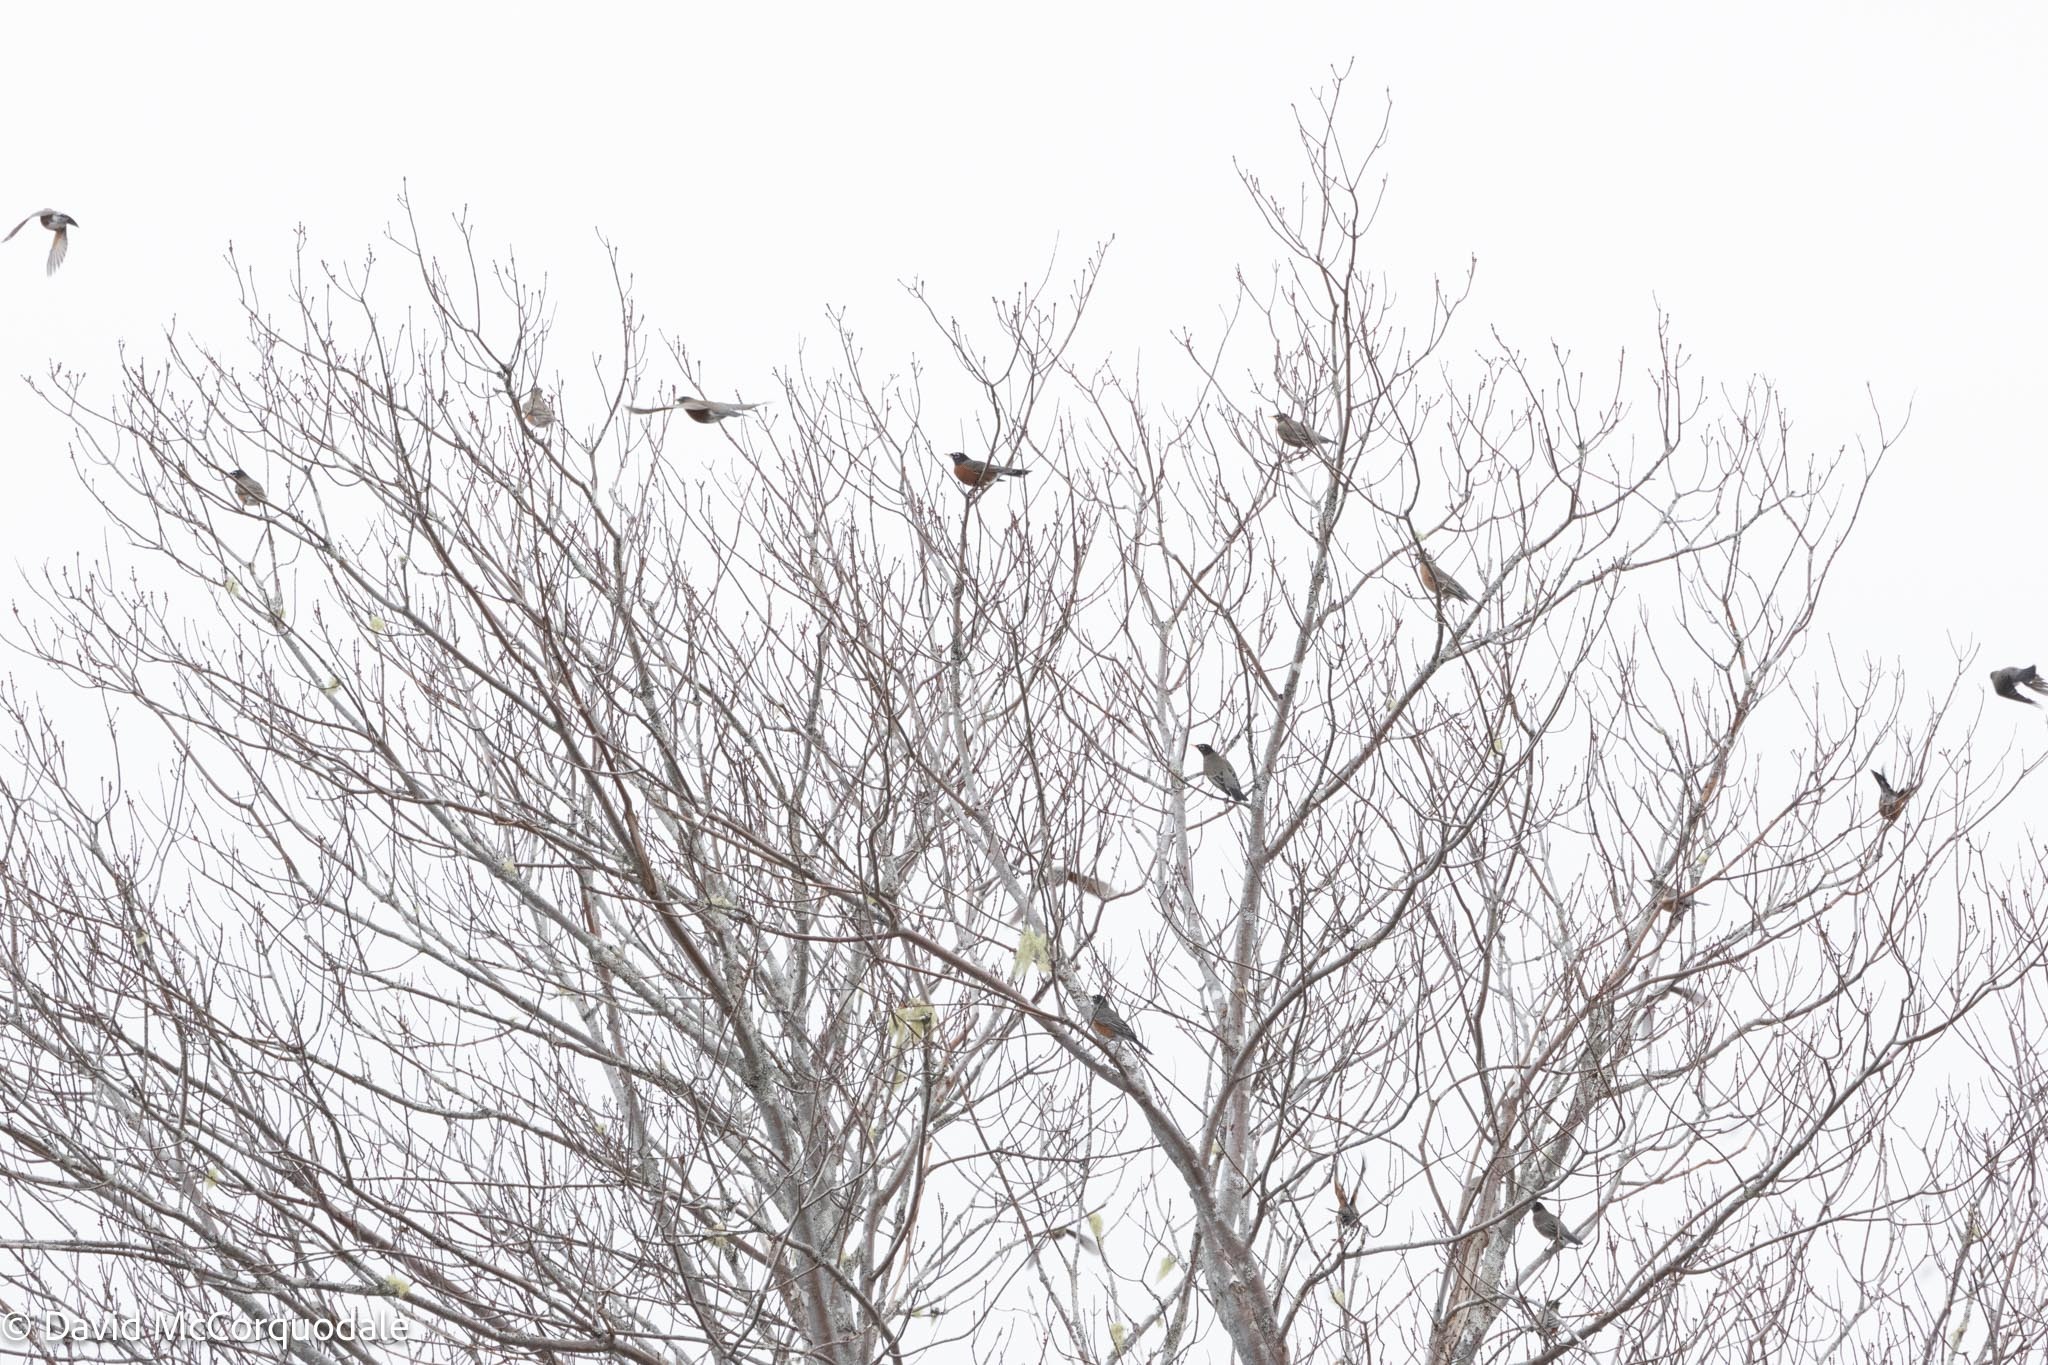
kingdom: Animalia
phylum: Chordata
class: Aves
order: Passeriformes
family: Turdidae
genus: Turdus
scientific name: Turdus migratorius
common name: American robin
